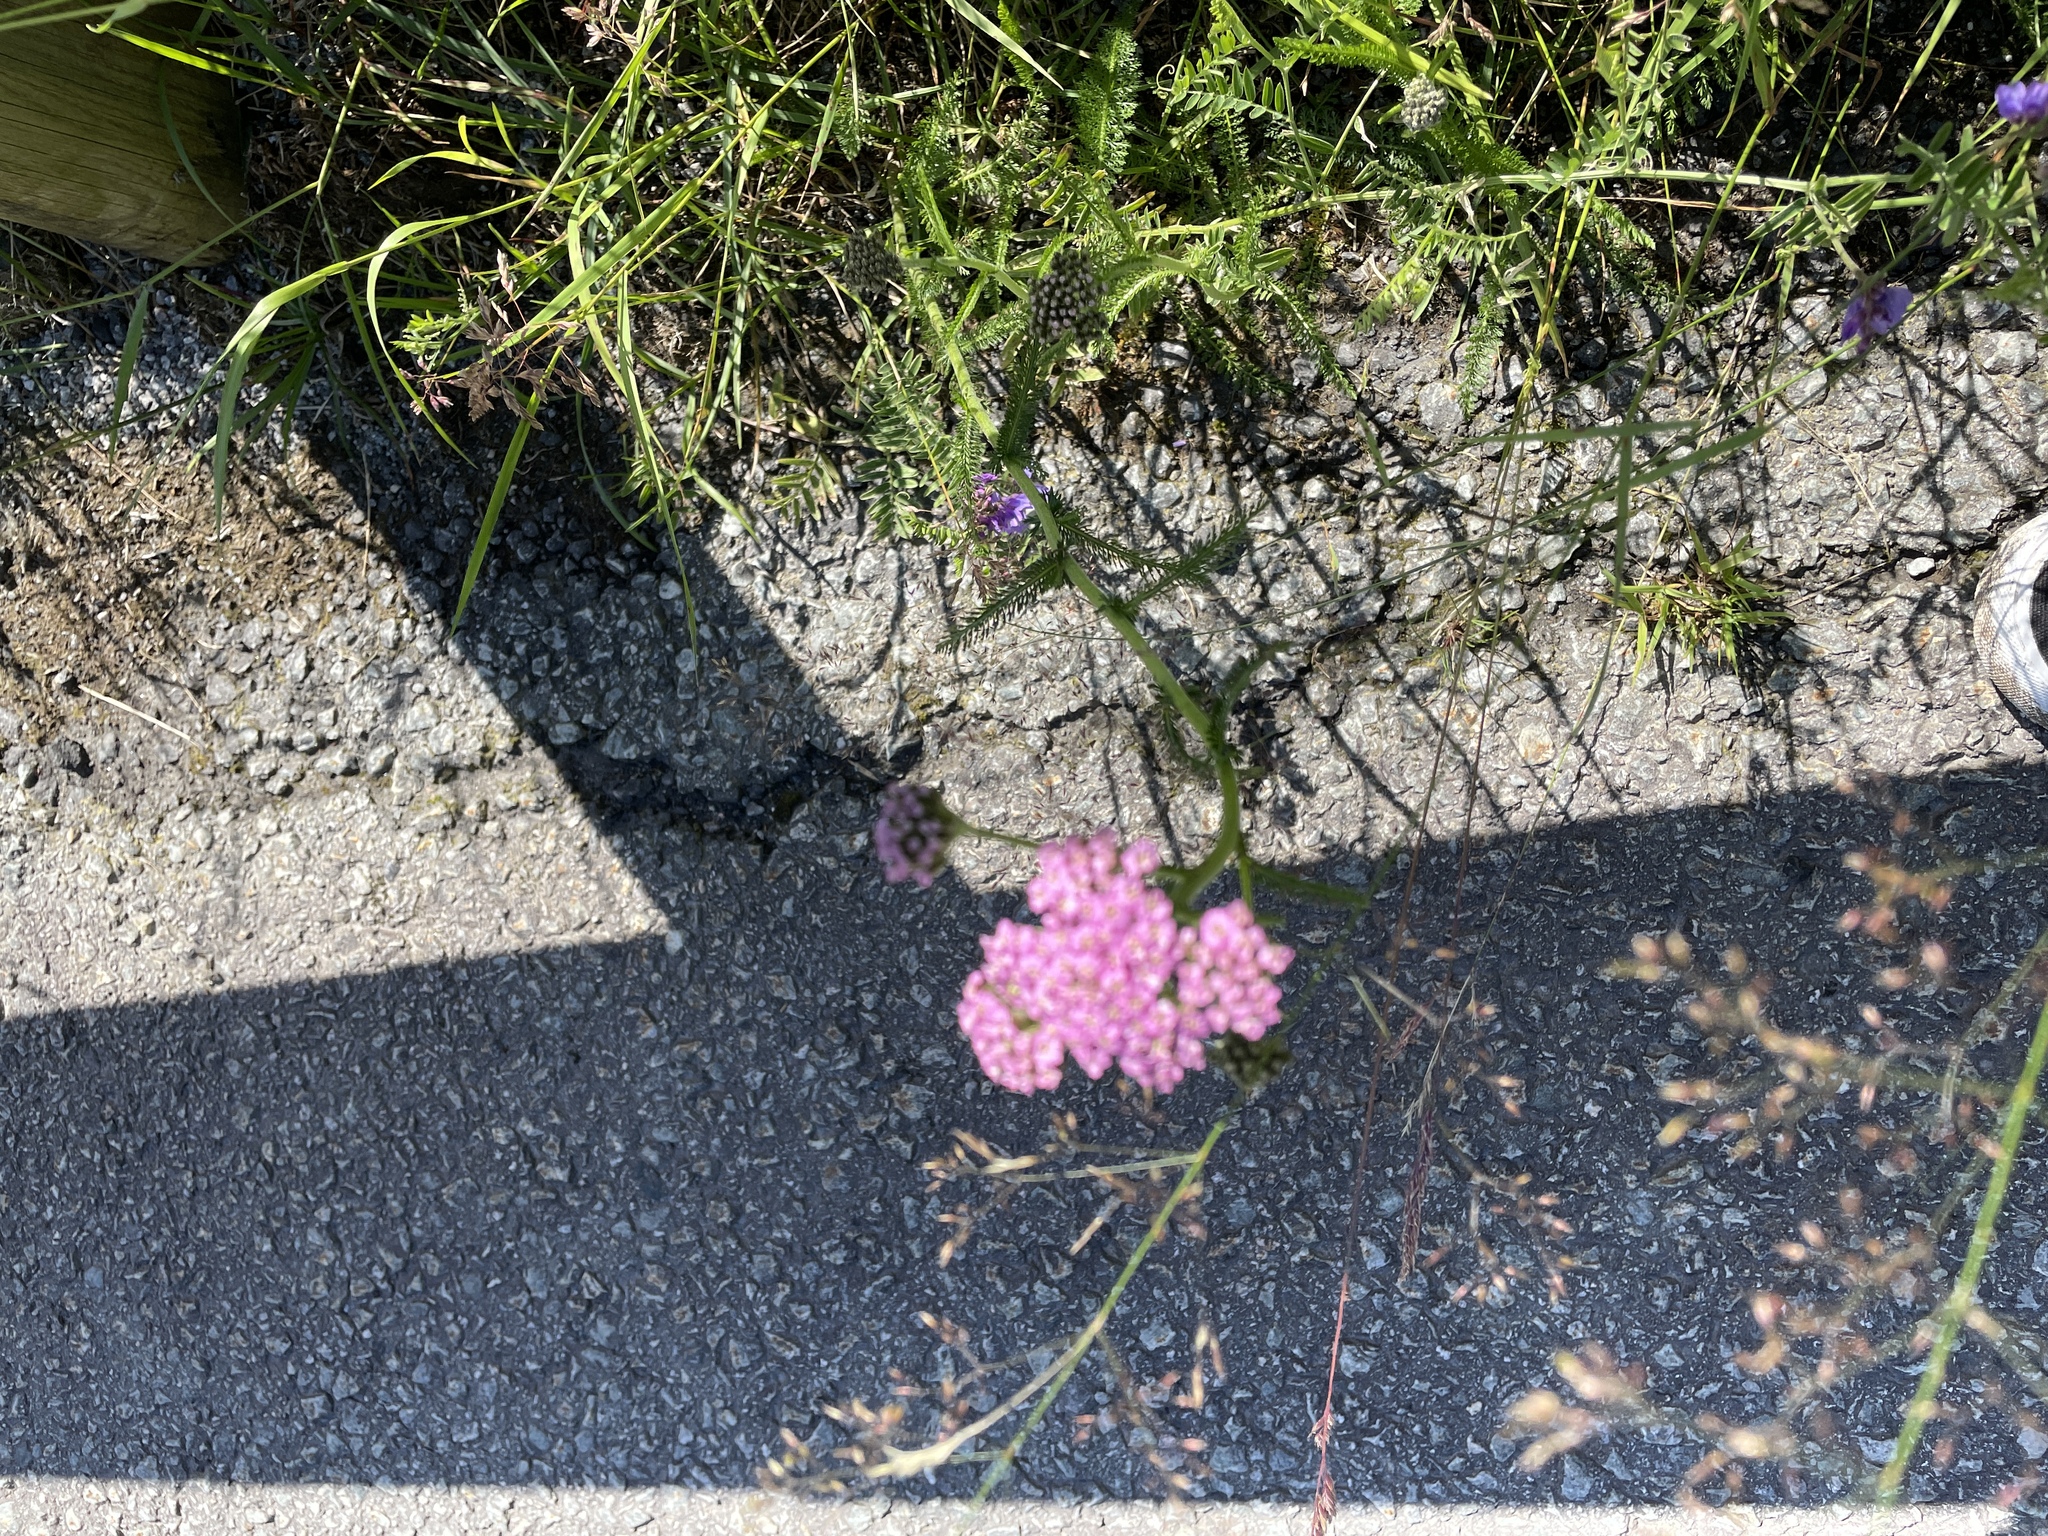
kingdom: Plantae
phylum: Tracheophyta
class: Magnoliopsida
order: Asterales
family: Asteraceae
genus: Achillea
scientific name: Achillea millefolium
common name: Yarrow
